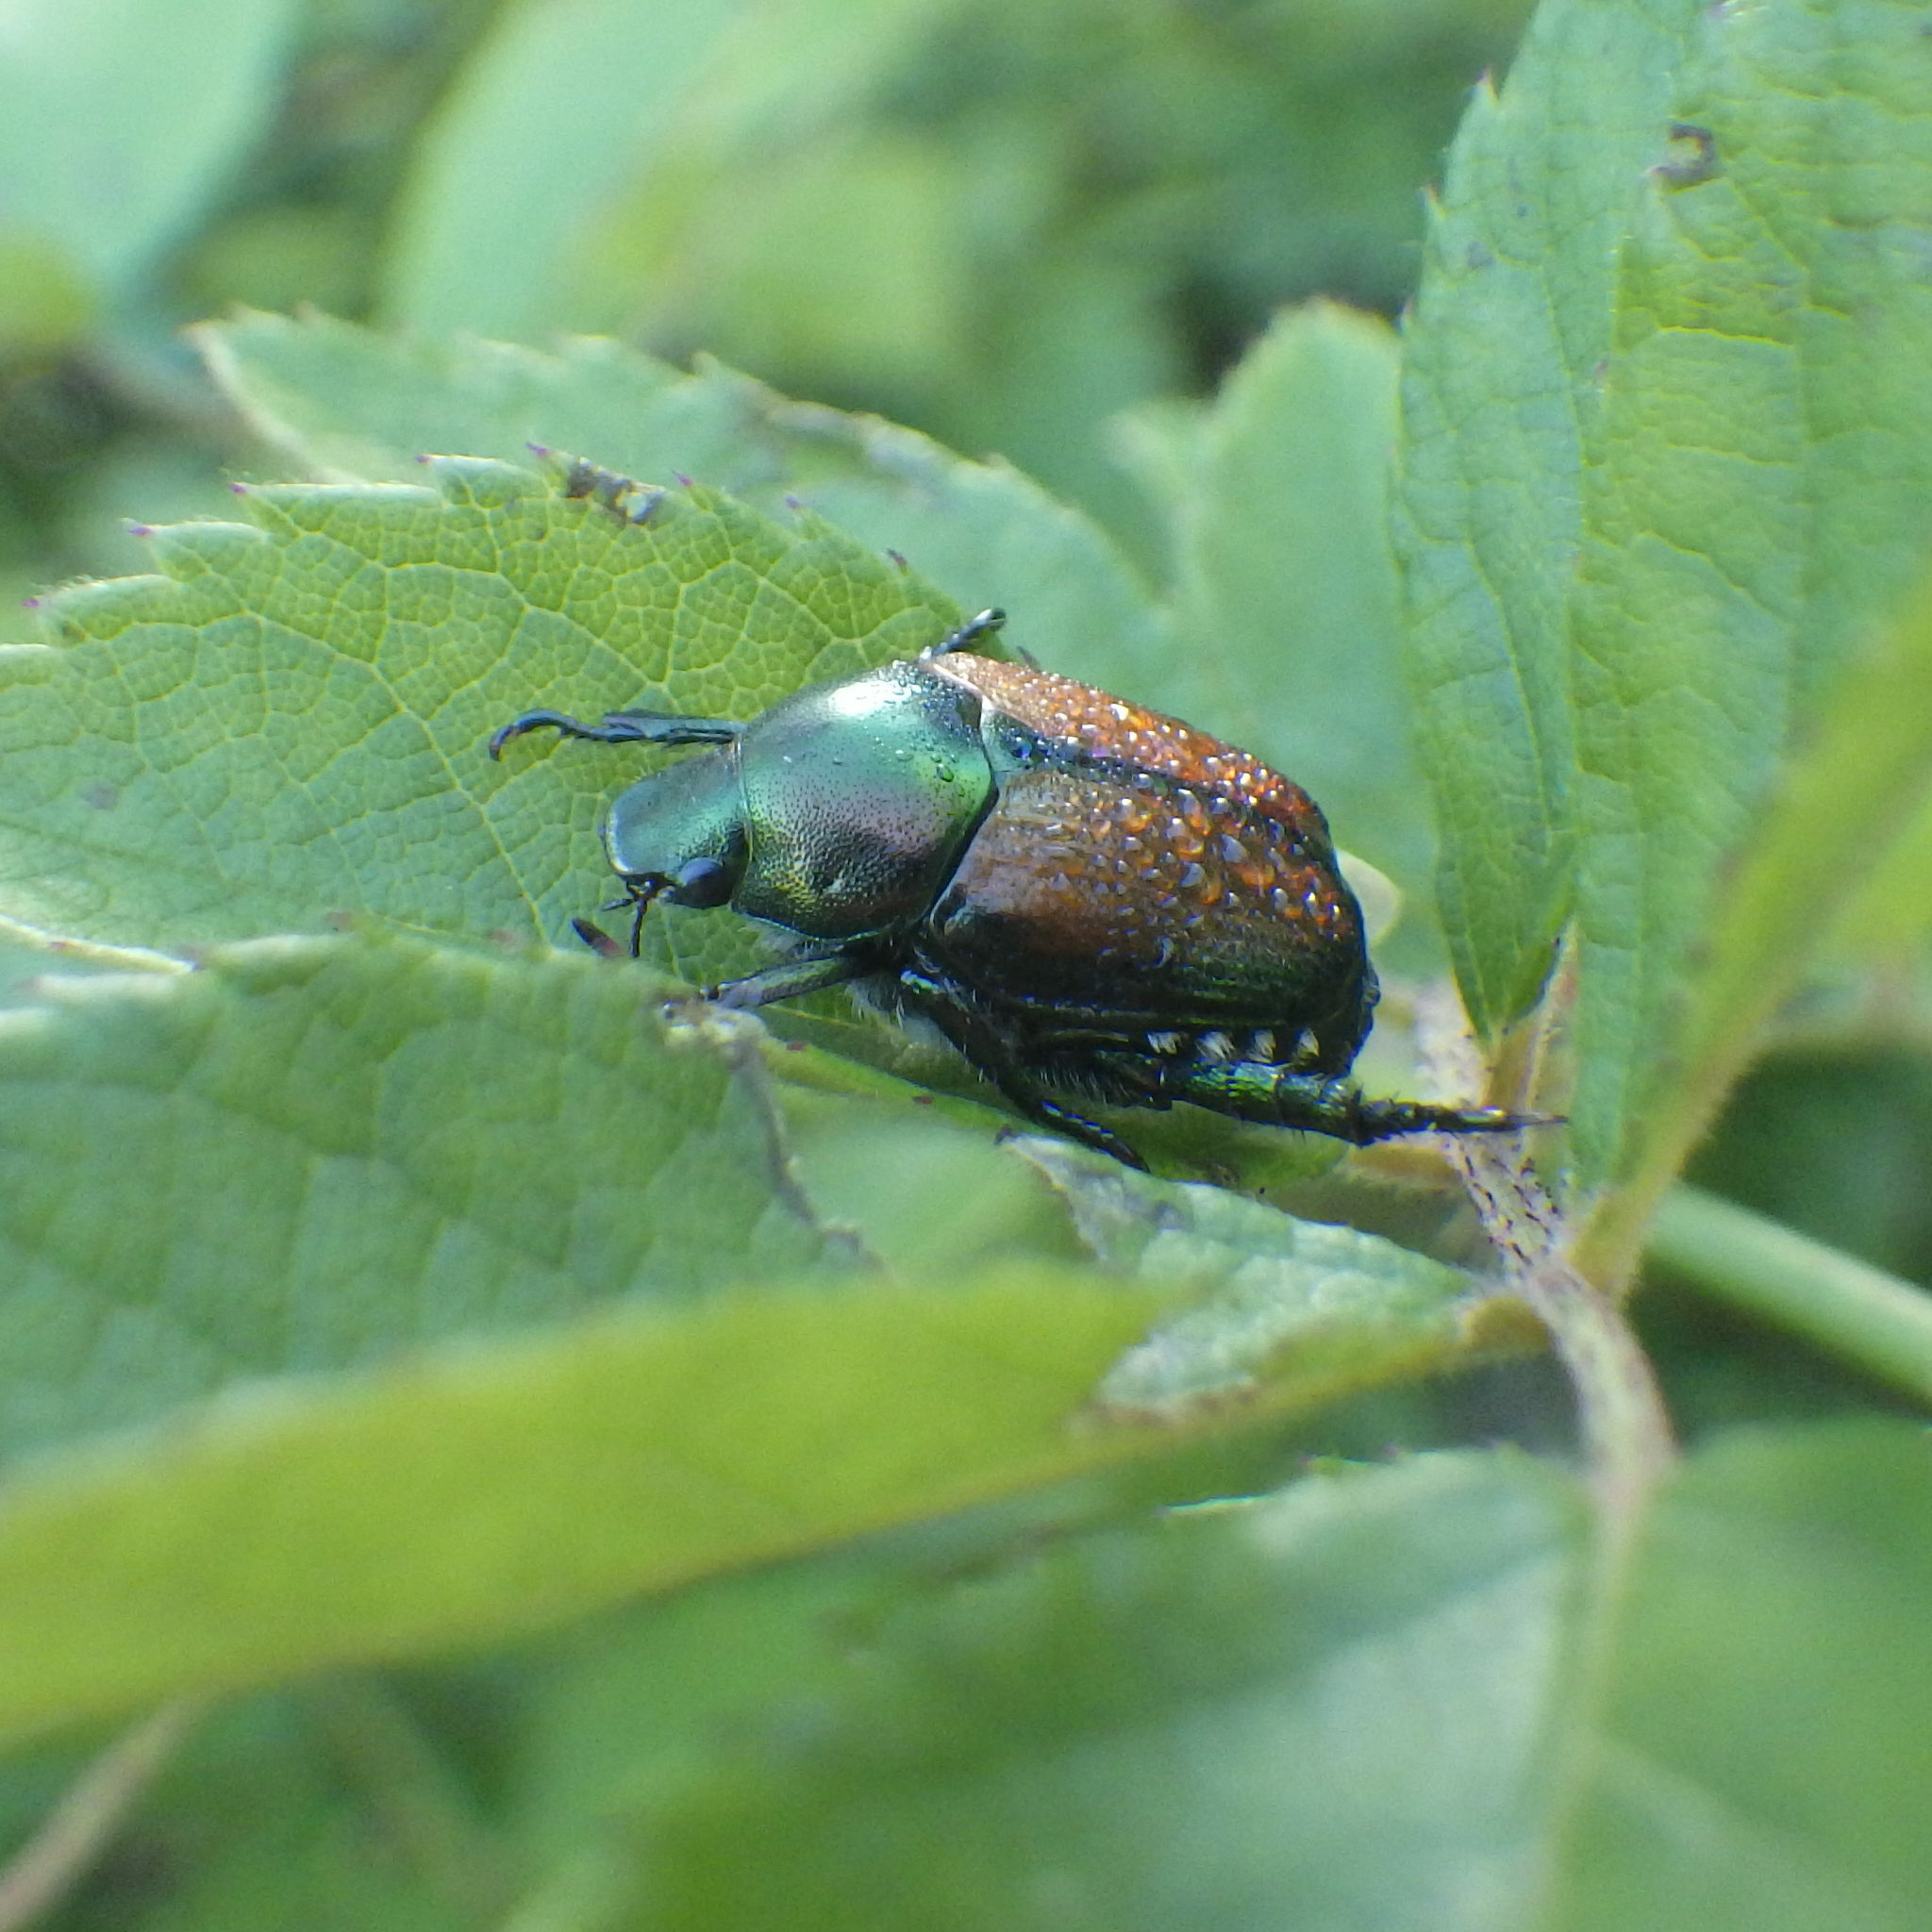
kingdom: Animalia
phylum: Arthropoda
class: Insecta
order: Coleoptera
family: Scarabaeidae
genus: Popillia
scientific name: Popillia japonica
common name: Japanese beetle
